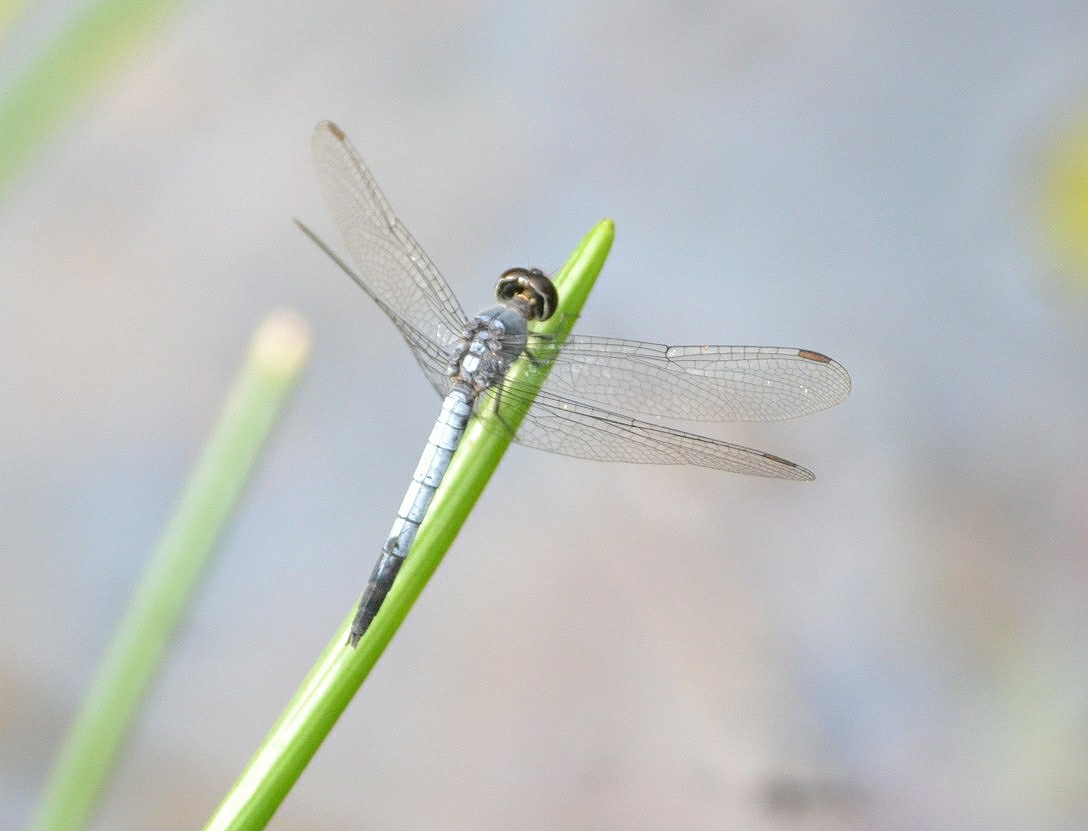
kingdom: Animalia
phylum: Arthropoda
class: Insecta
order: Odonata
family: Libellulidae
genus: Orthetrum
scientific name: Orthetrum glaucum
